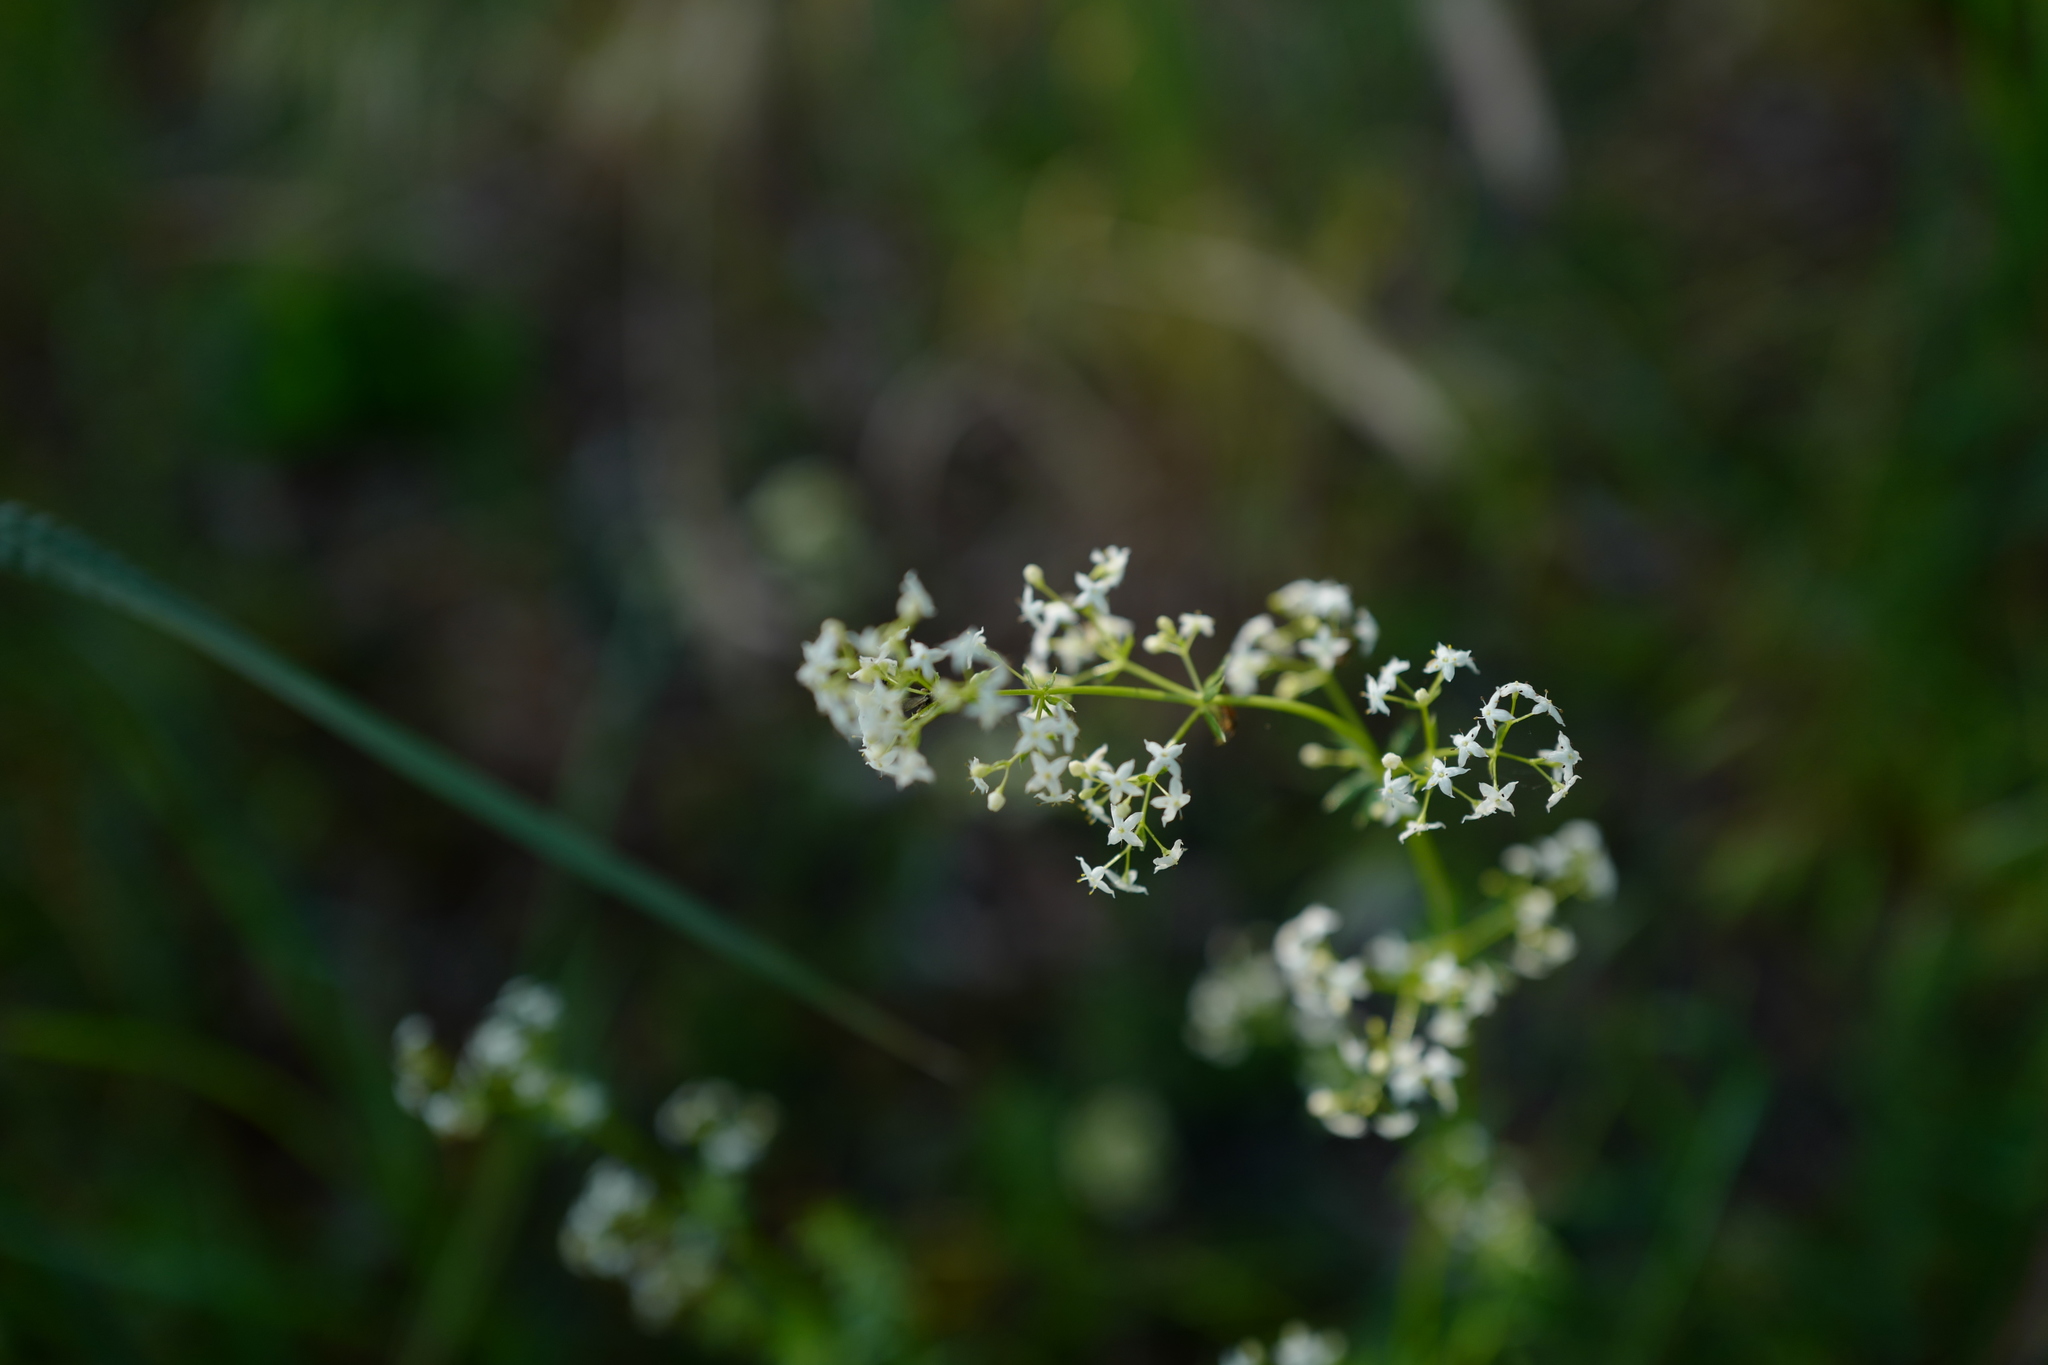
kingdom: Plantae
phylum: Tracheophyta
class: Magnoliopsida
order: Gentianales
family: Rubiaceae
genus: Galium
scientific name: Galium album
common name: White bedstraw
